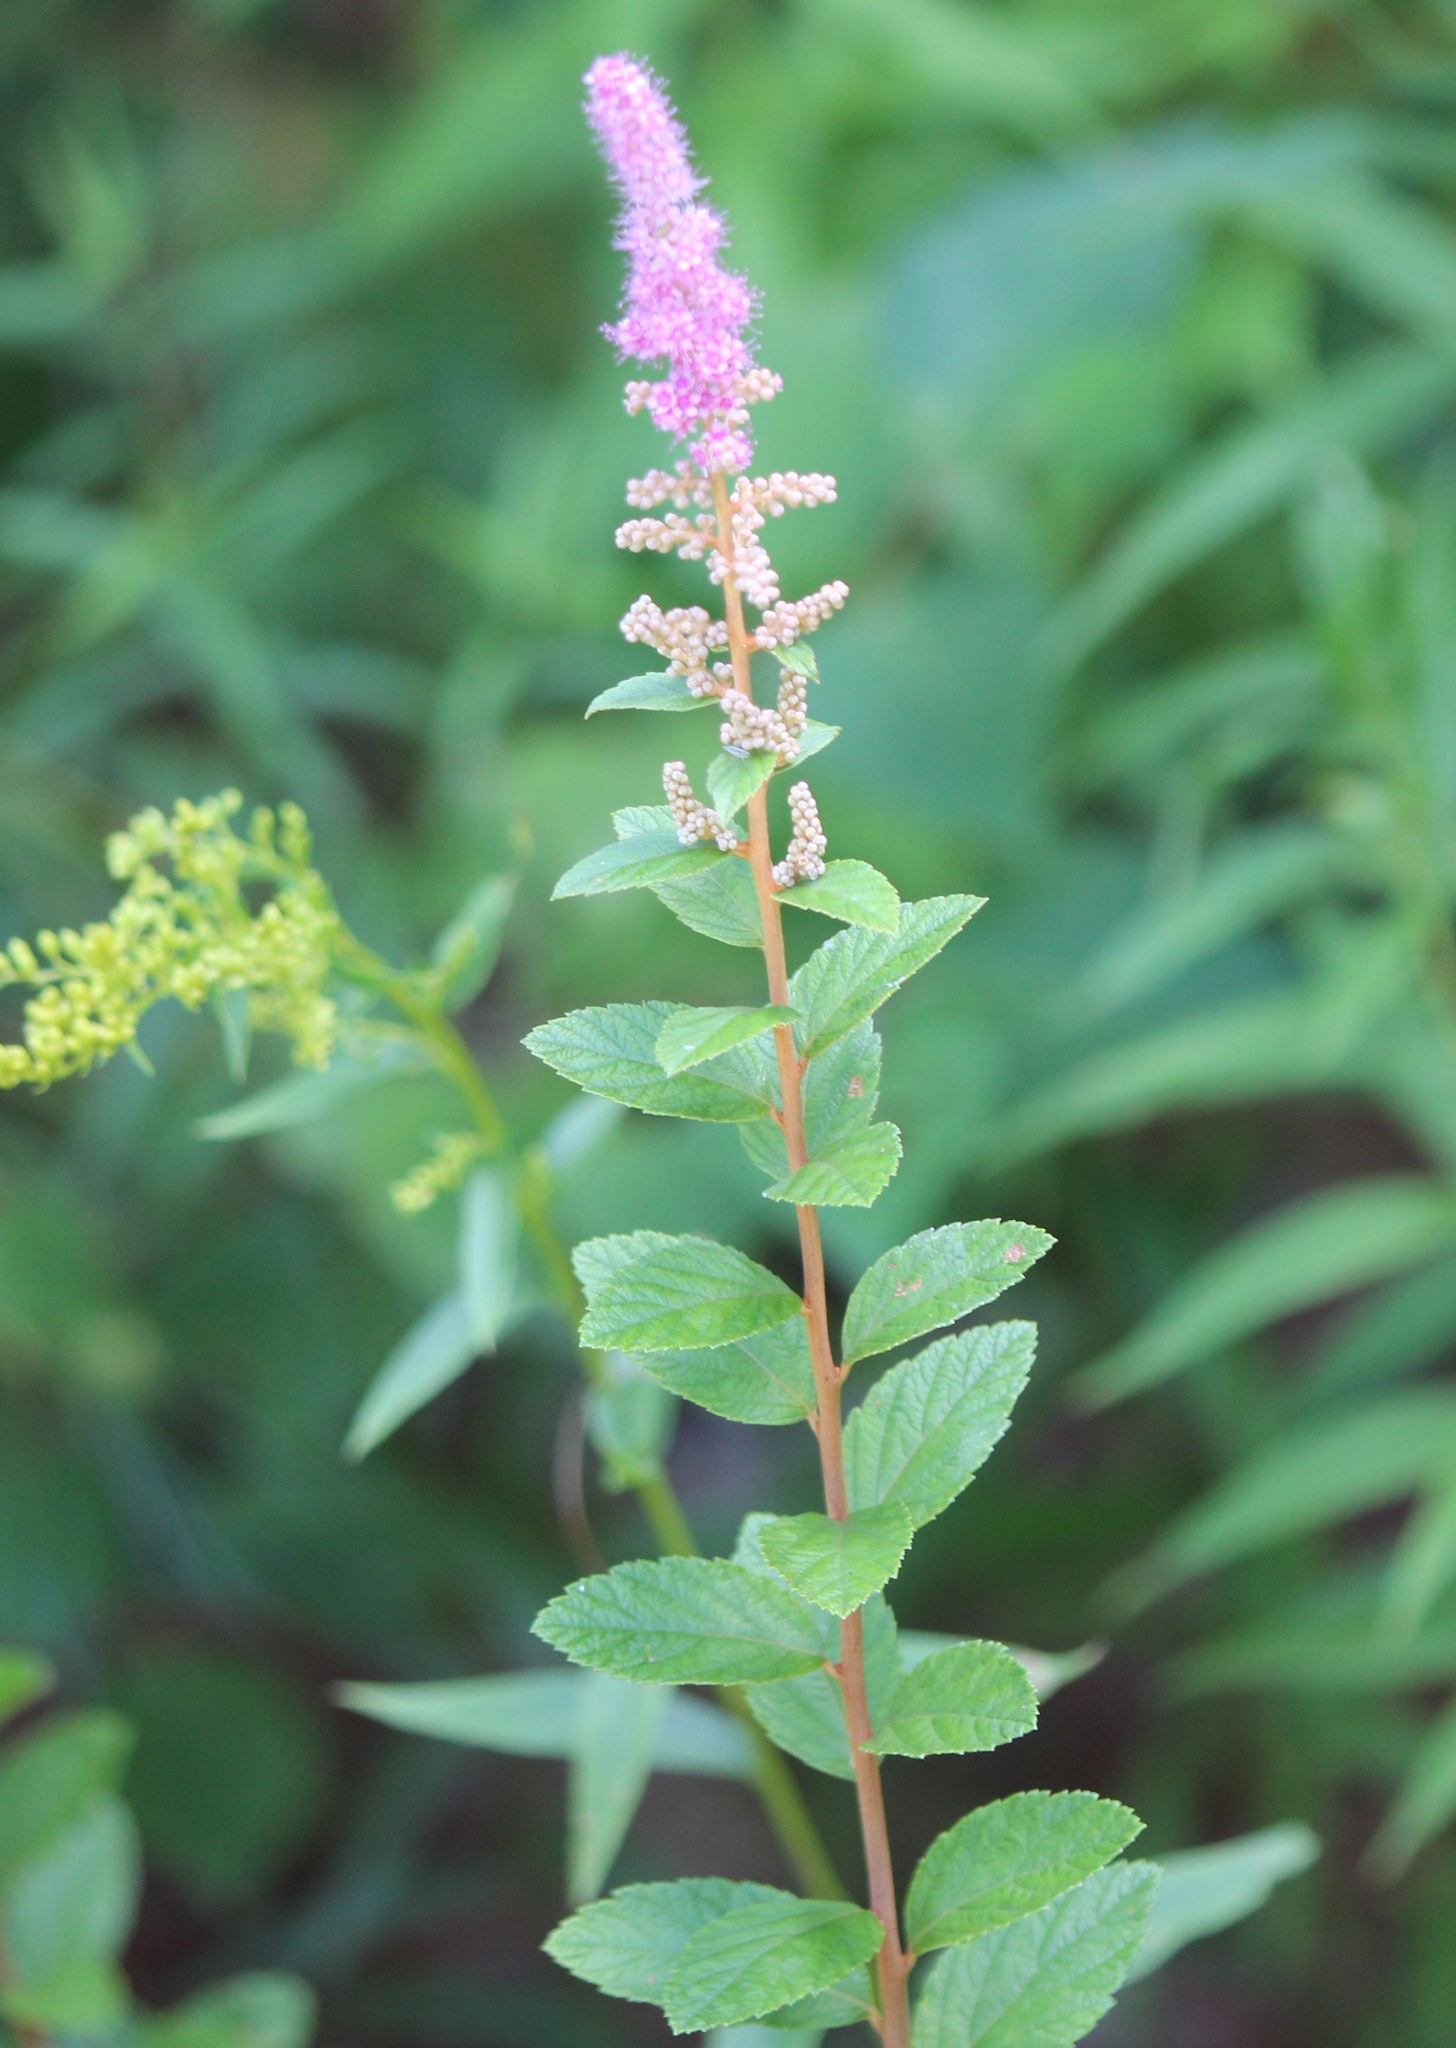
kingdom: Plantae
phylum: Tracheophyta
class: Magnoliopsida
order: Rosales
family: Rosaceae
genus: Spiraea
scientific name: Spiraea tomentosa
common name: Hardhack
